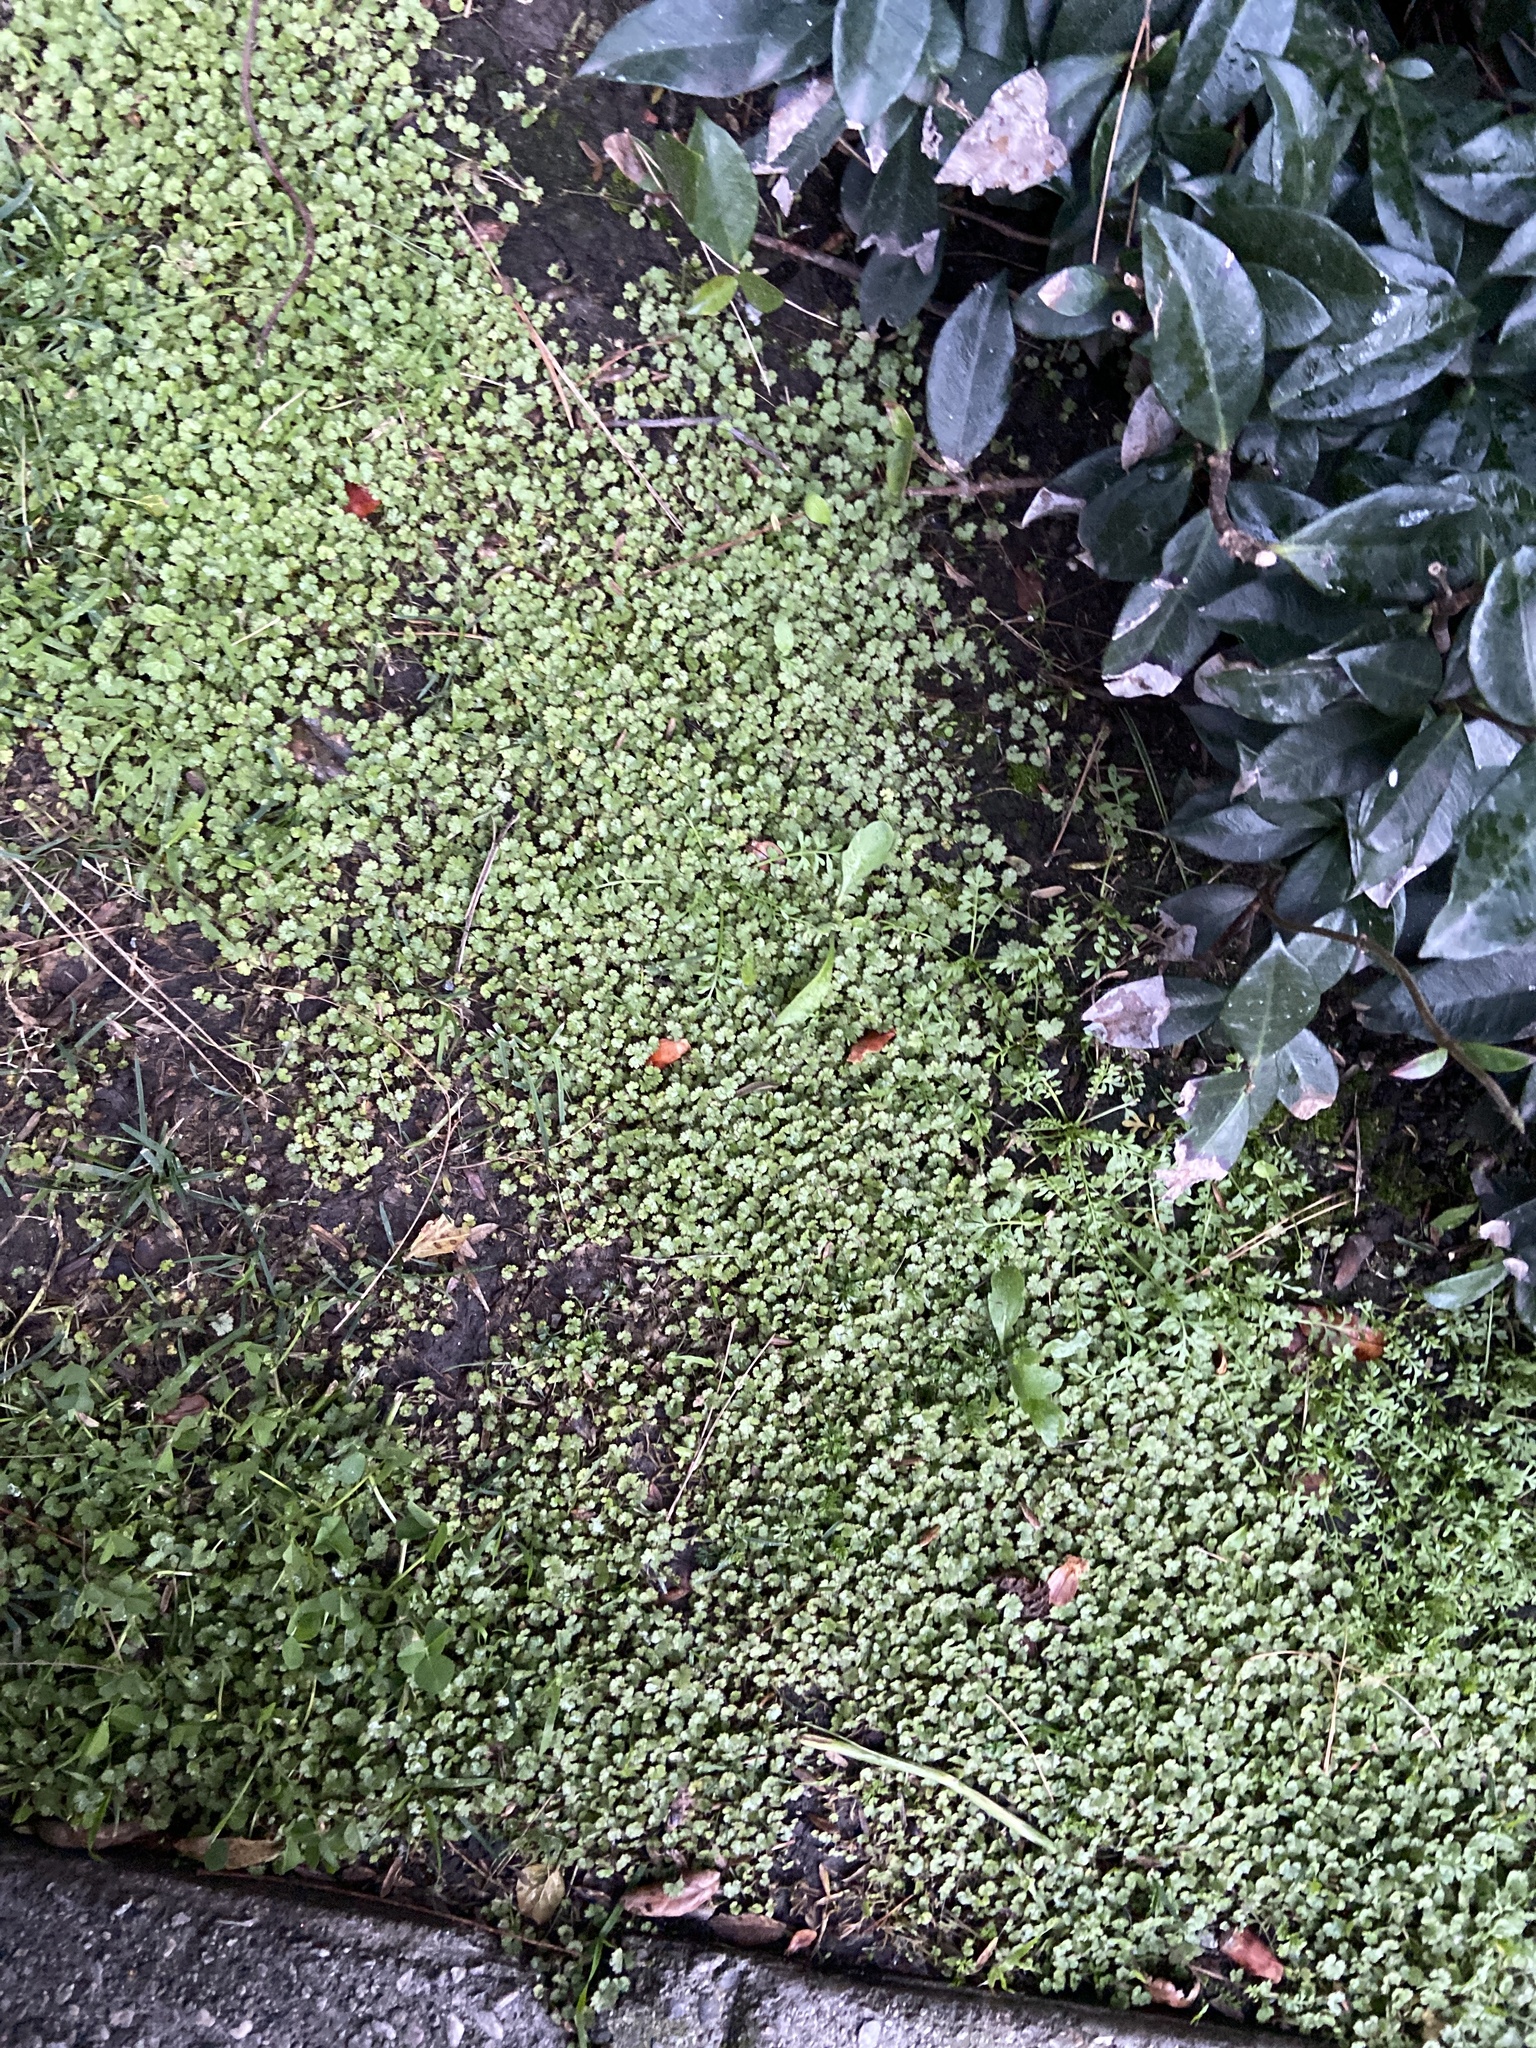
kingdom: Plantae
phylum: Tracheophyta
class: Magnoliopsida
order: Apiales
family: Araliaceae
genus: Hydrocotyle
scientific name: Hydrocotyle moschata
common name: Hairy pennywort
